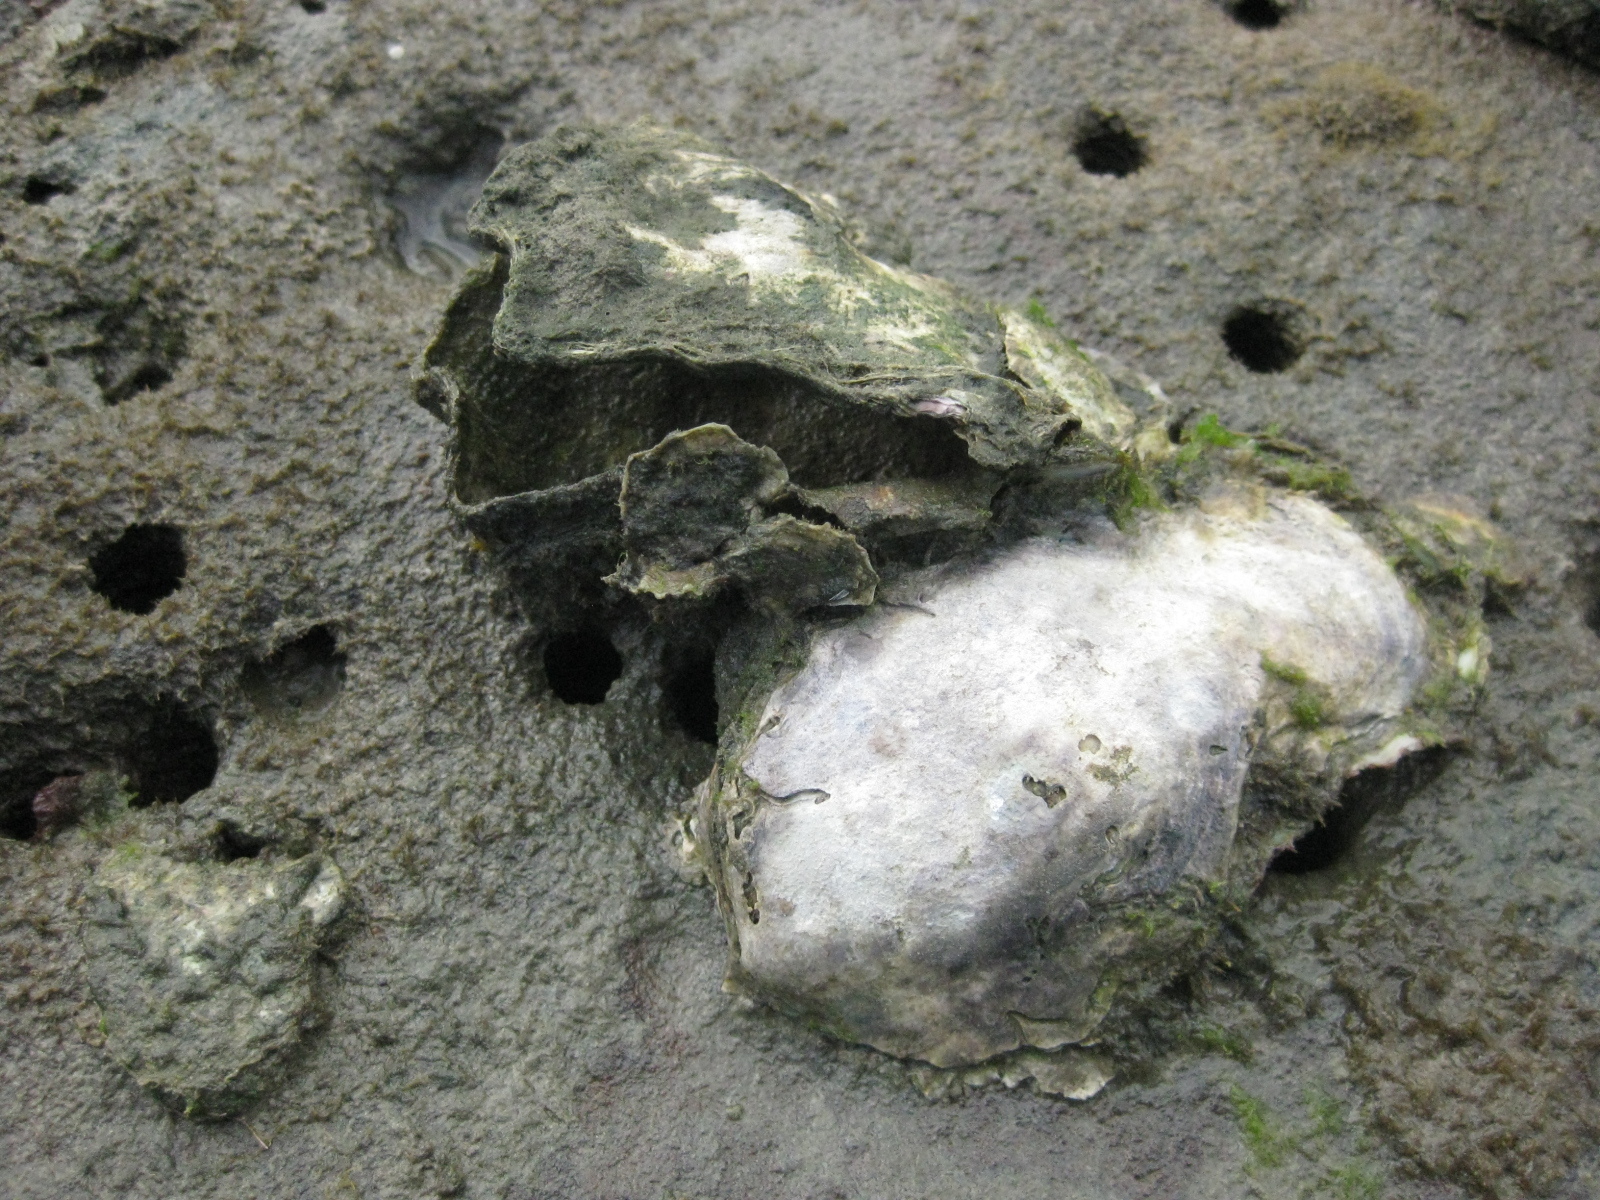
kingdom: Animalia
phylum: Mollusca
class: Bivalvia
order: Ostreida
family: Ostreidae
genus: Magallana
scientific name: Magallana gigas
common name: Pacific oyster
